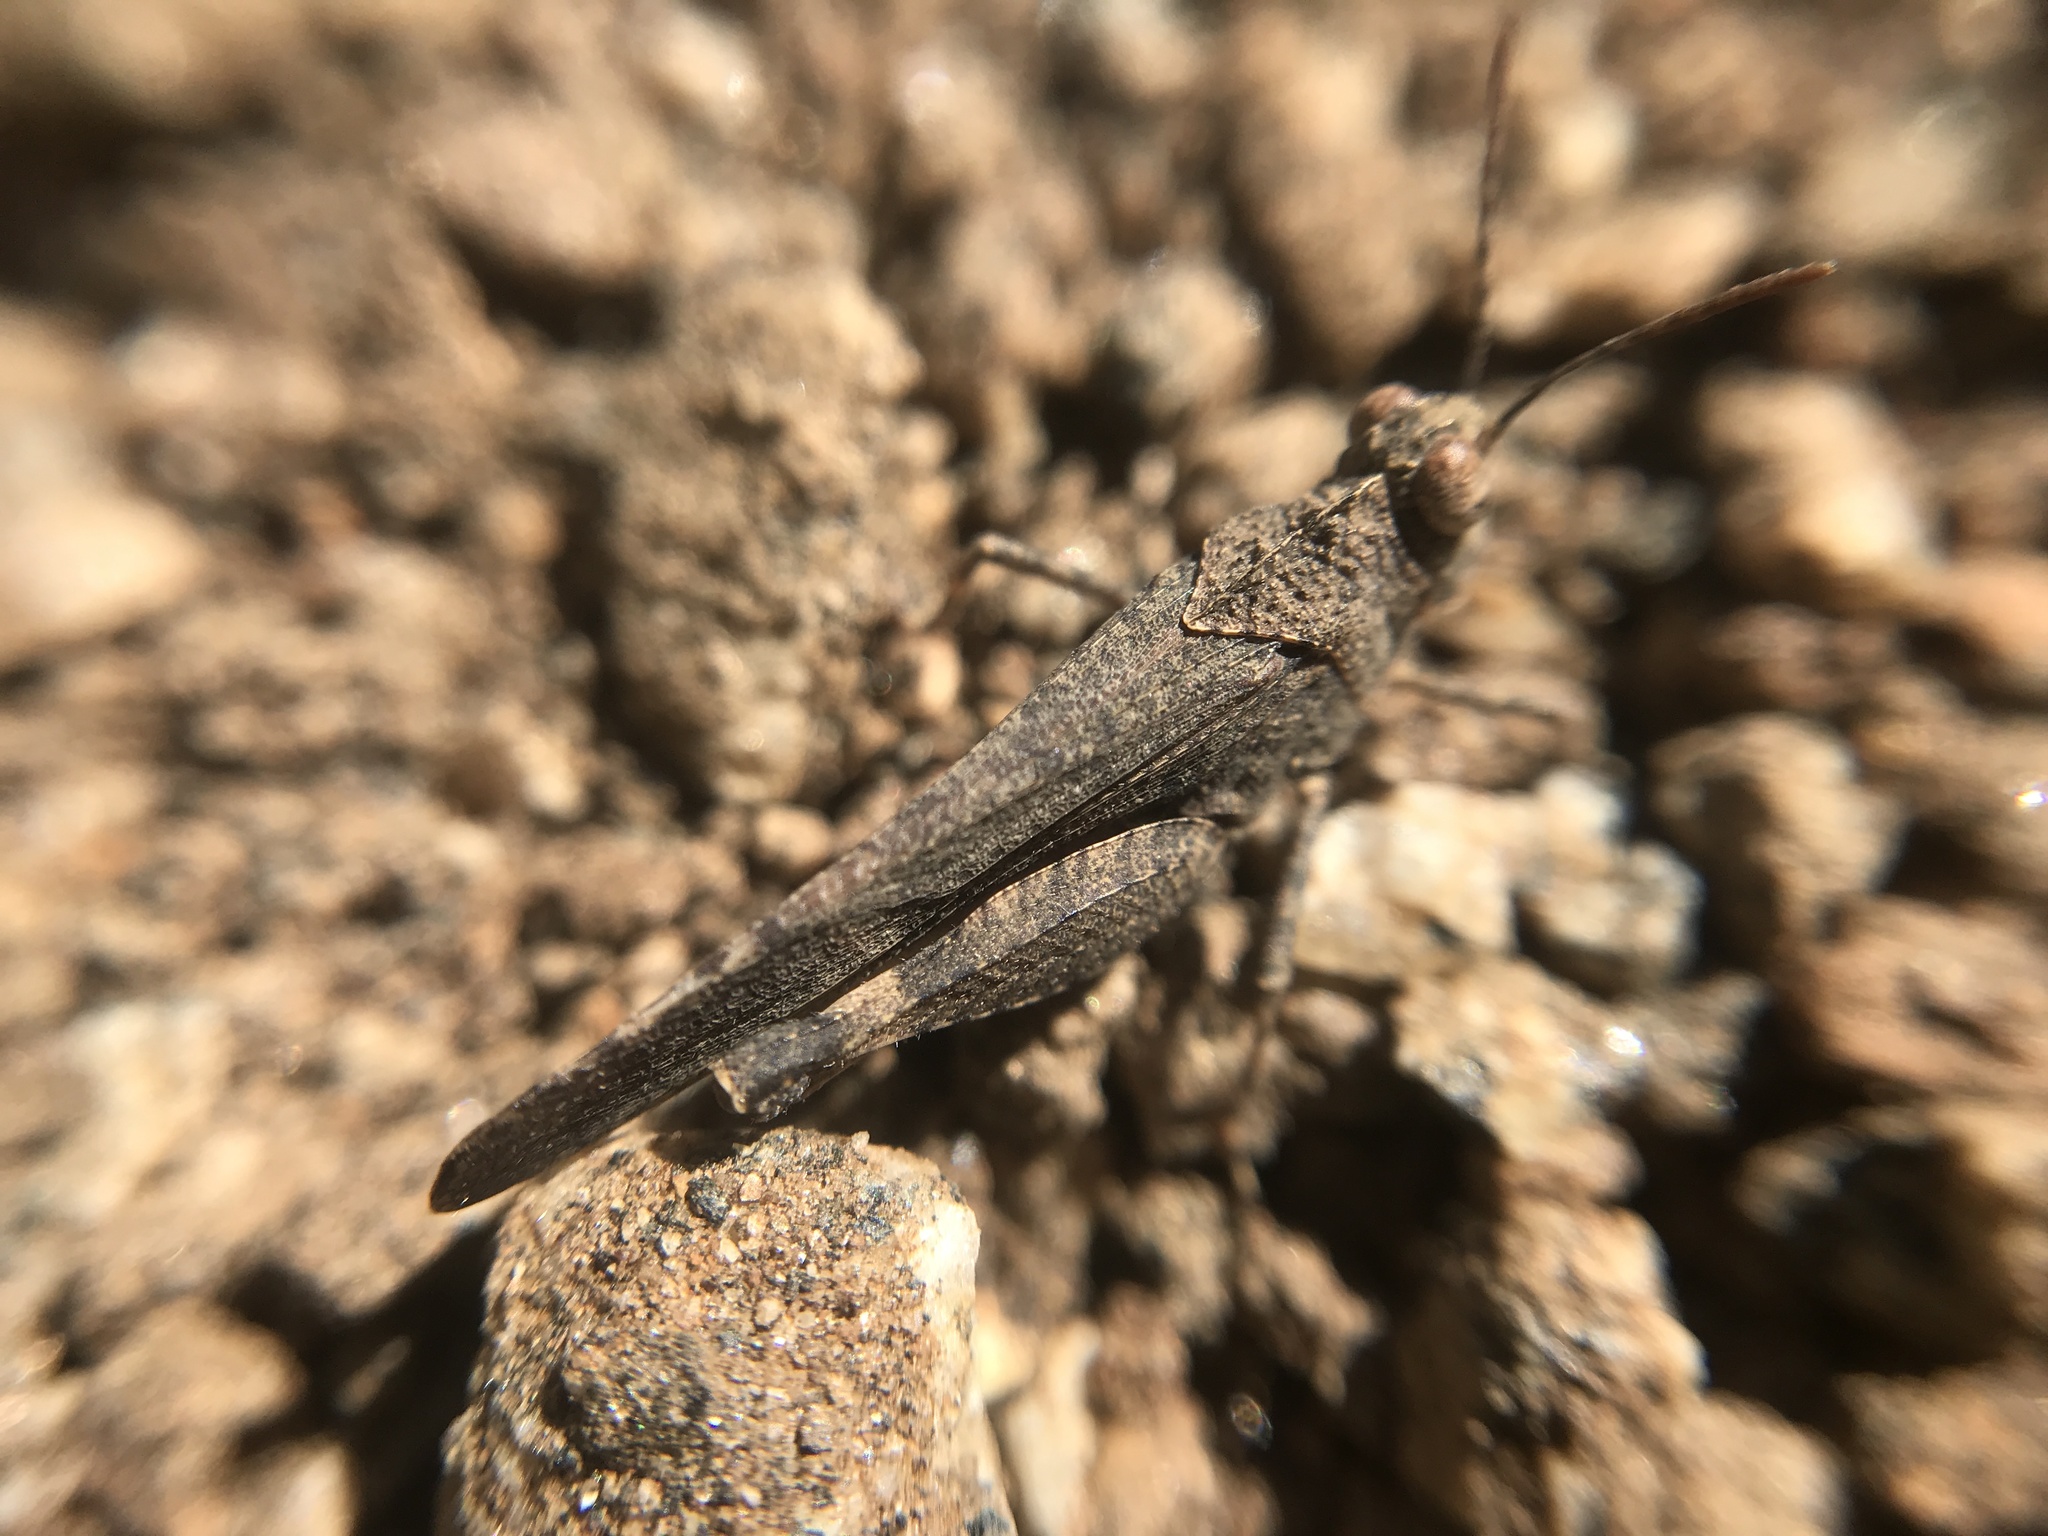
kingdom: Animalia
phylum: Arthropoda
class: Insecta
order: Orthoptera
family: Acrididae
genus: Lactista
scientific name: Lactista gibbosus
